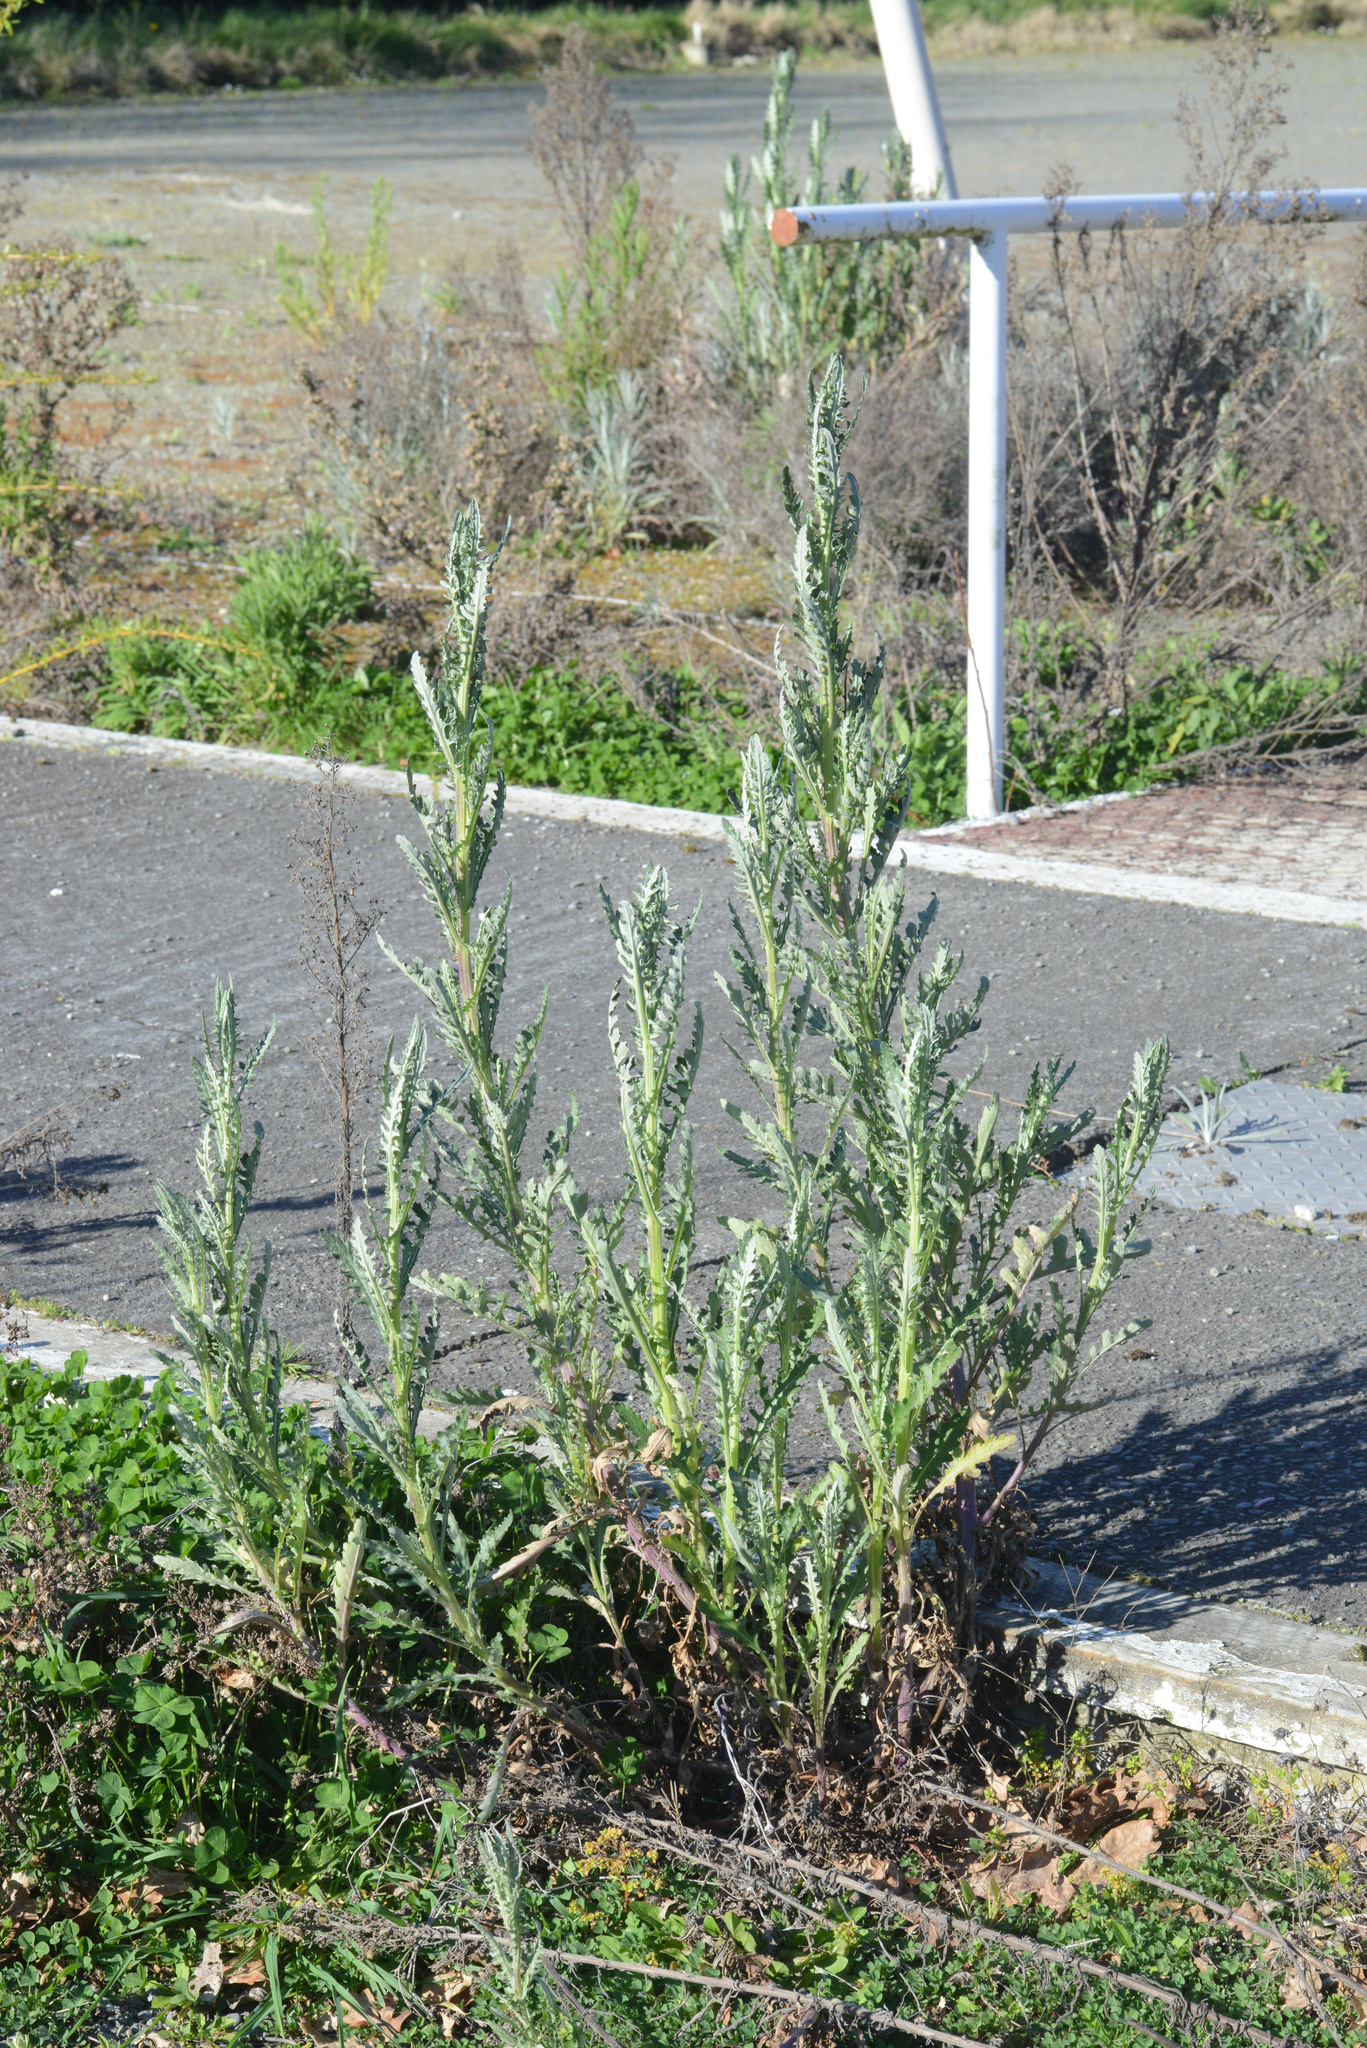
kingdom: Plantae
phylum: Tracheophyta
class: Magnoliopsida
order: Asterales
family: Asteraceae
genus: Senecio
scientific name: Senecio glomeratus
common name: Cutleaf burnweed
